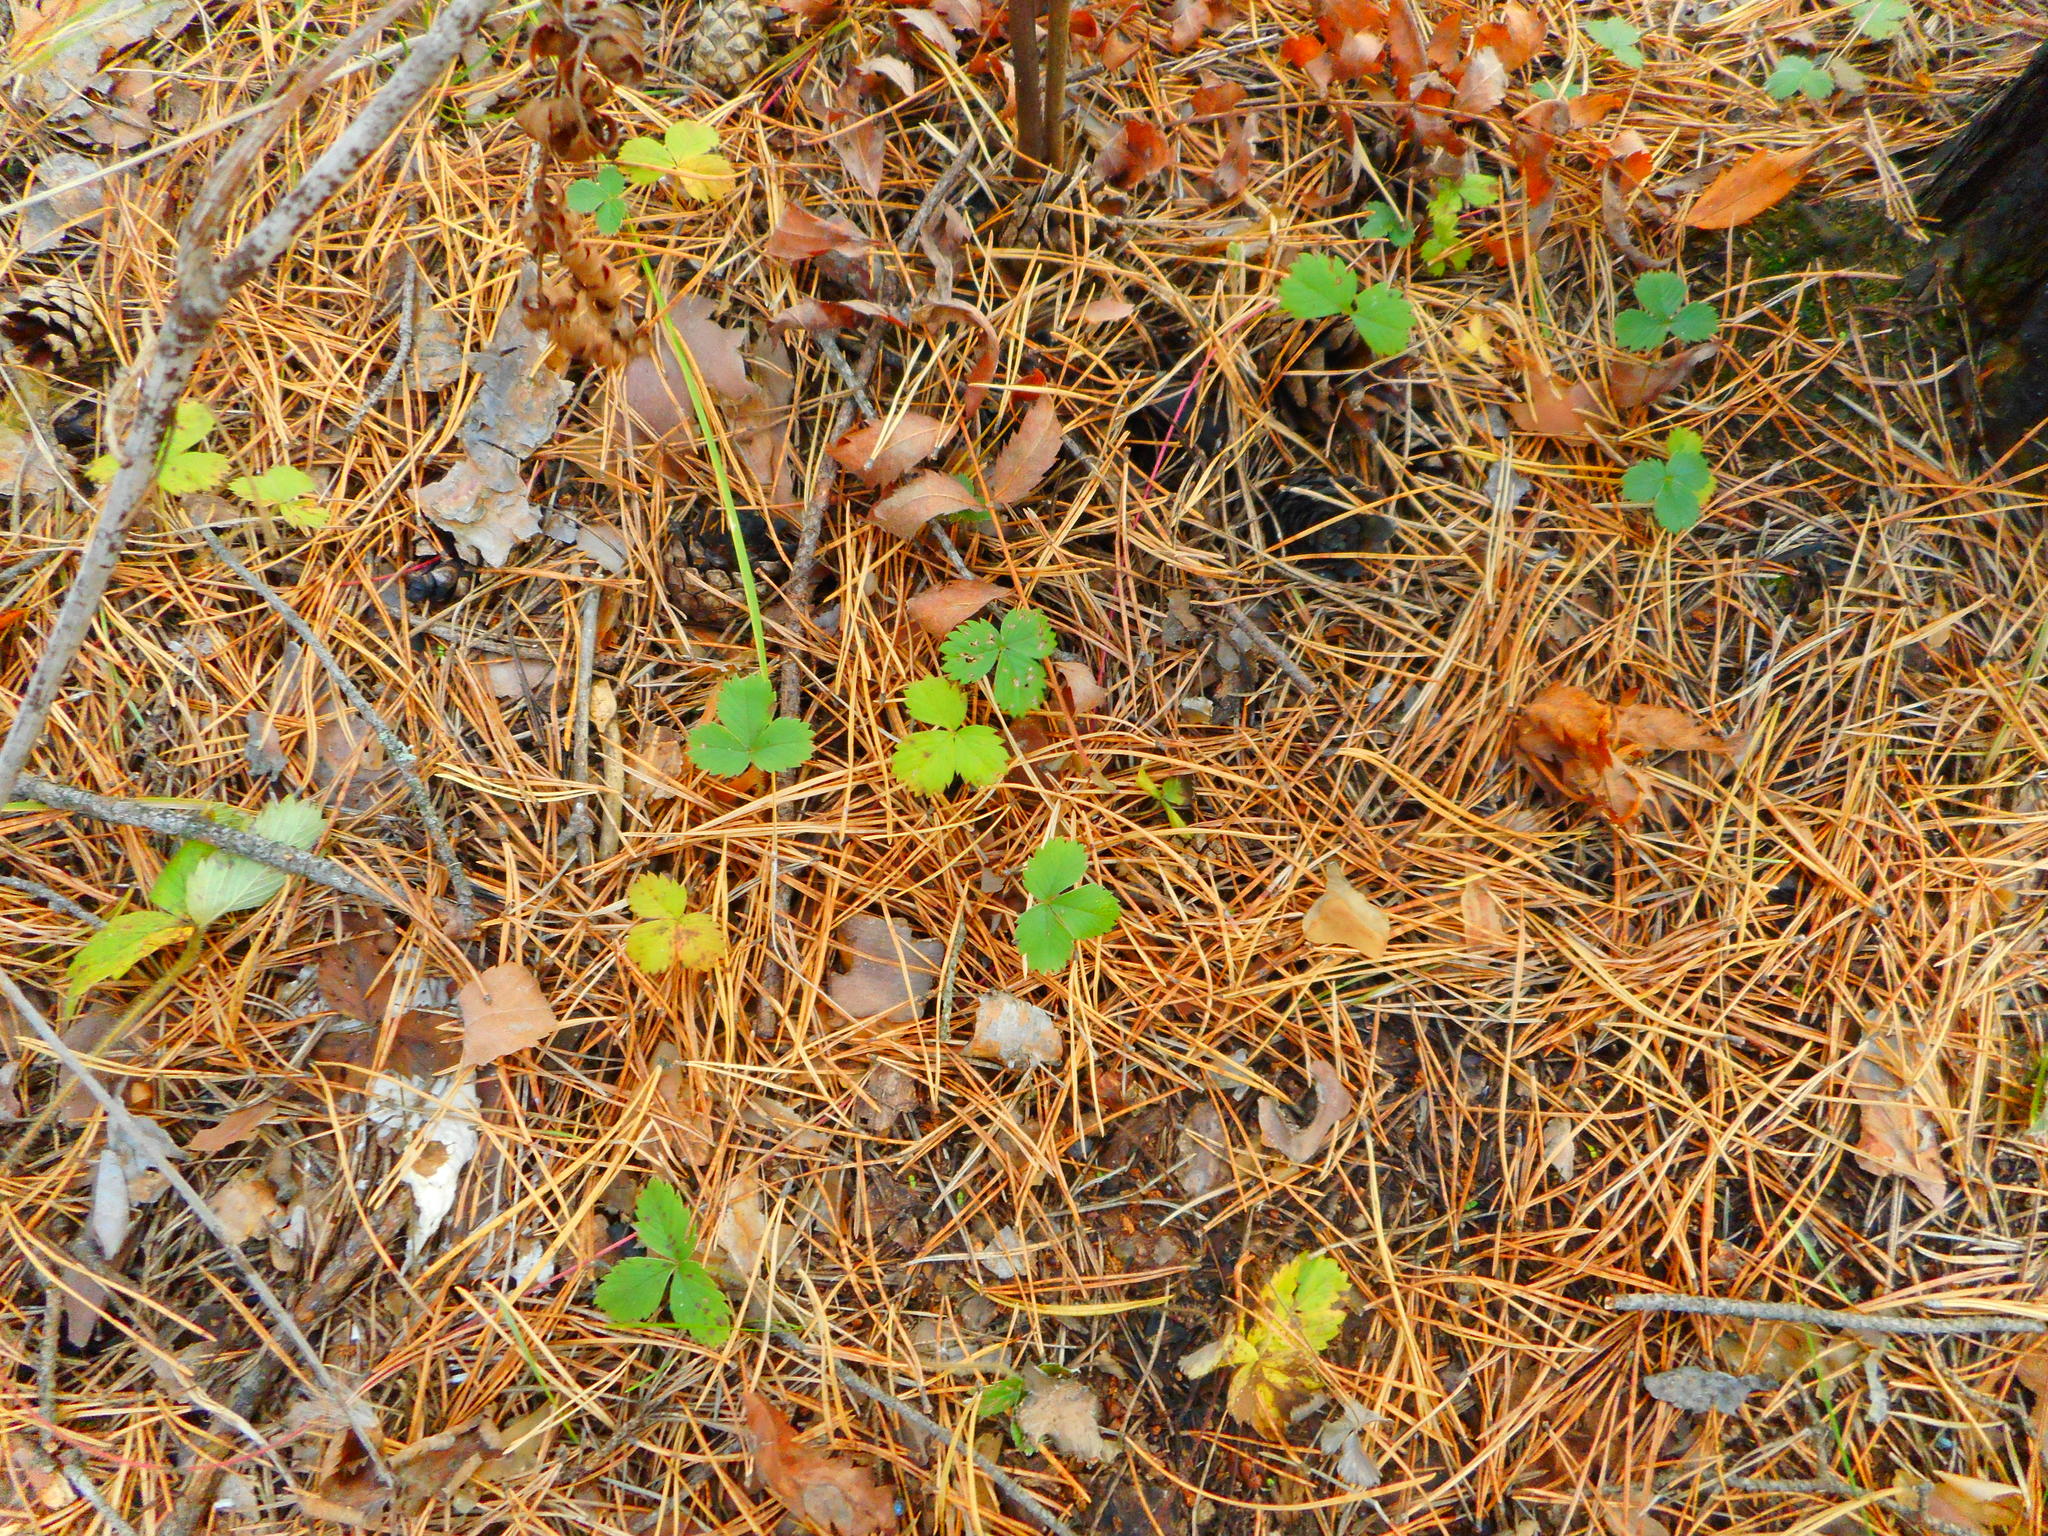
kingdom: Plantae
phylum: Tracheophyta
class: Magnoliopsida
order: Rosales
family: Rosaceae
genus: Fragaria
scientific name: Fragaria vesca
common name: Wild strawberry
